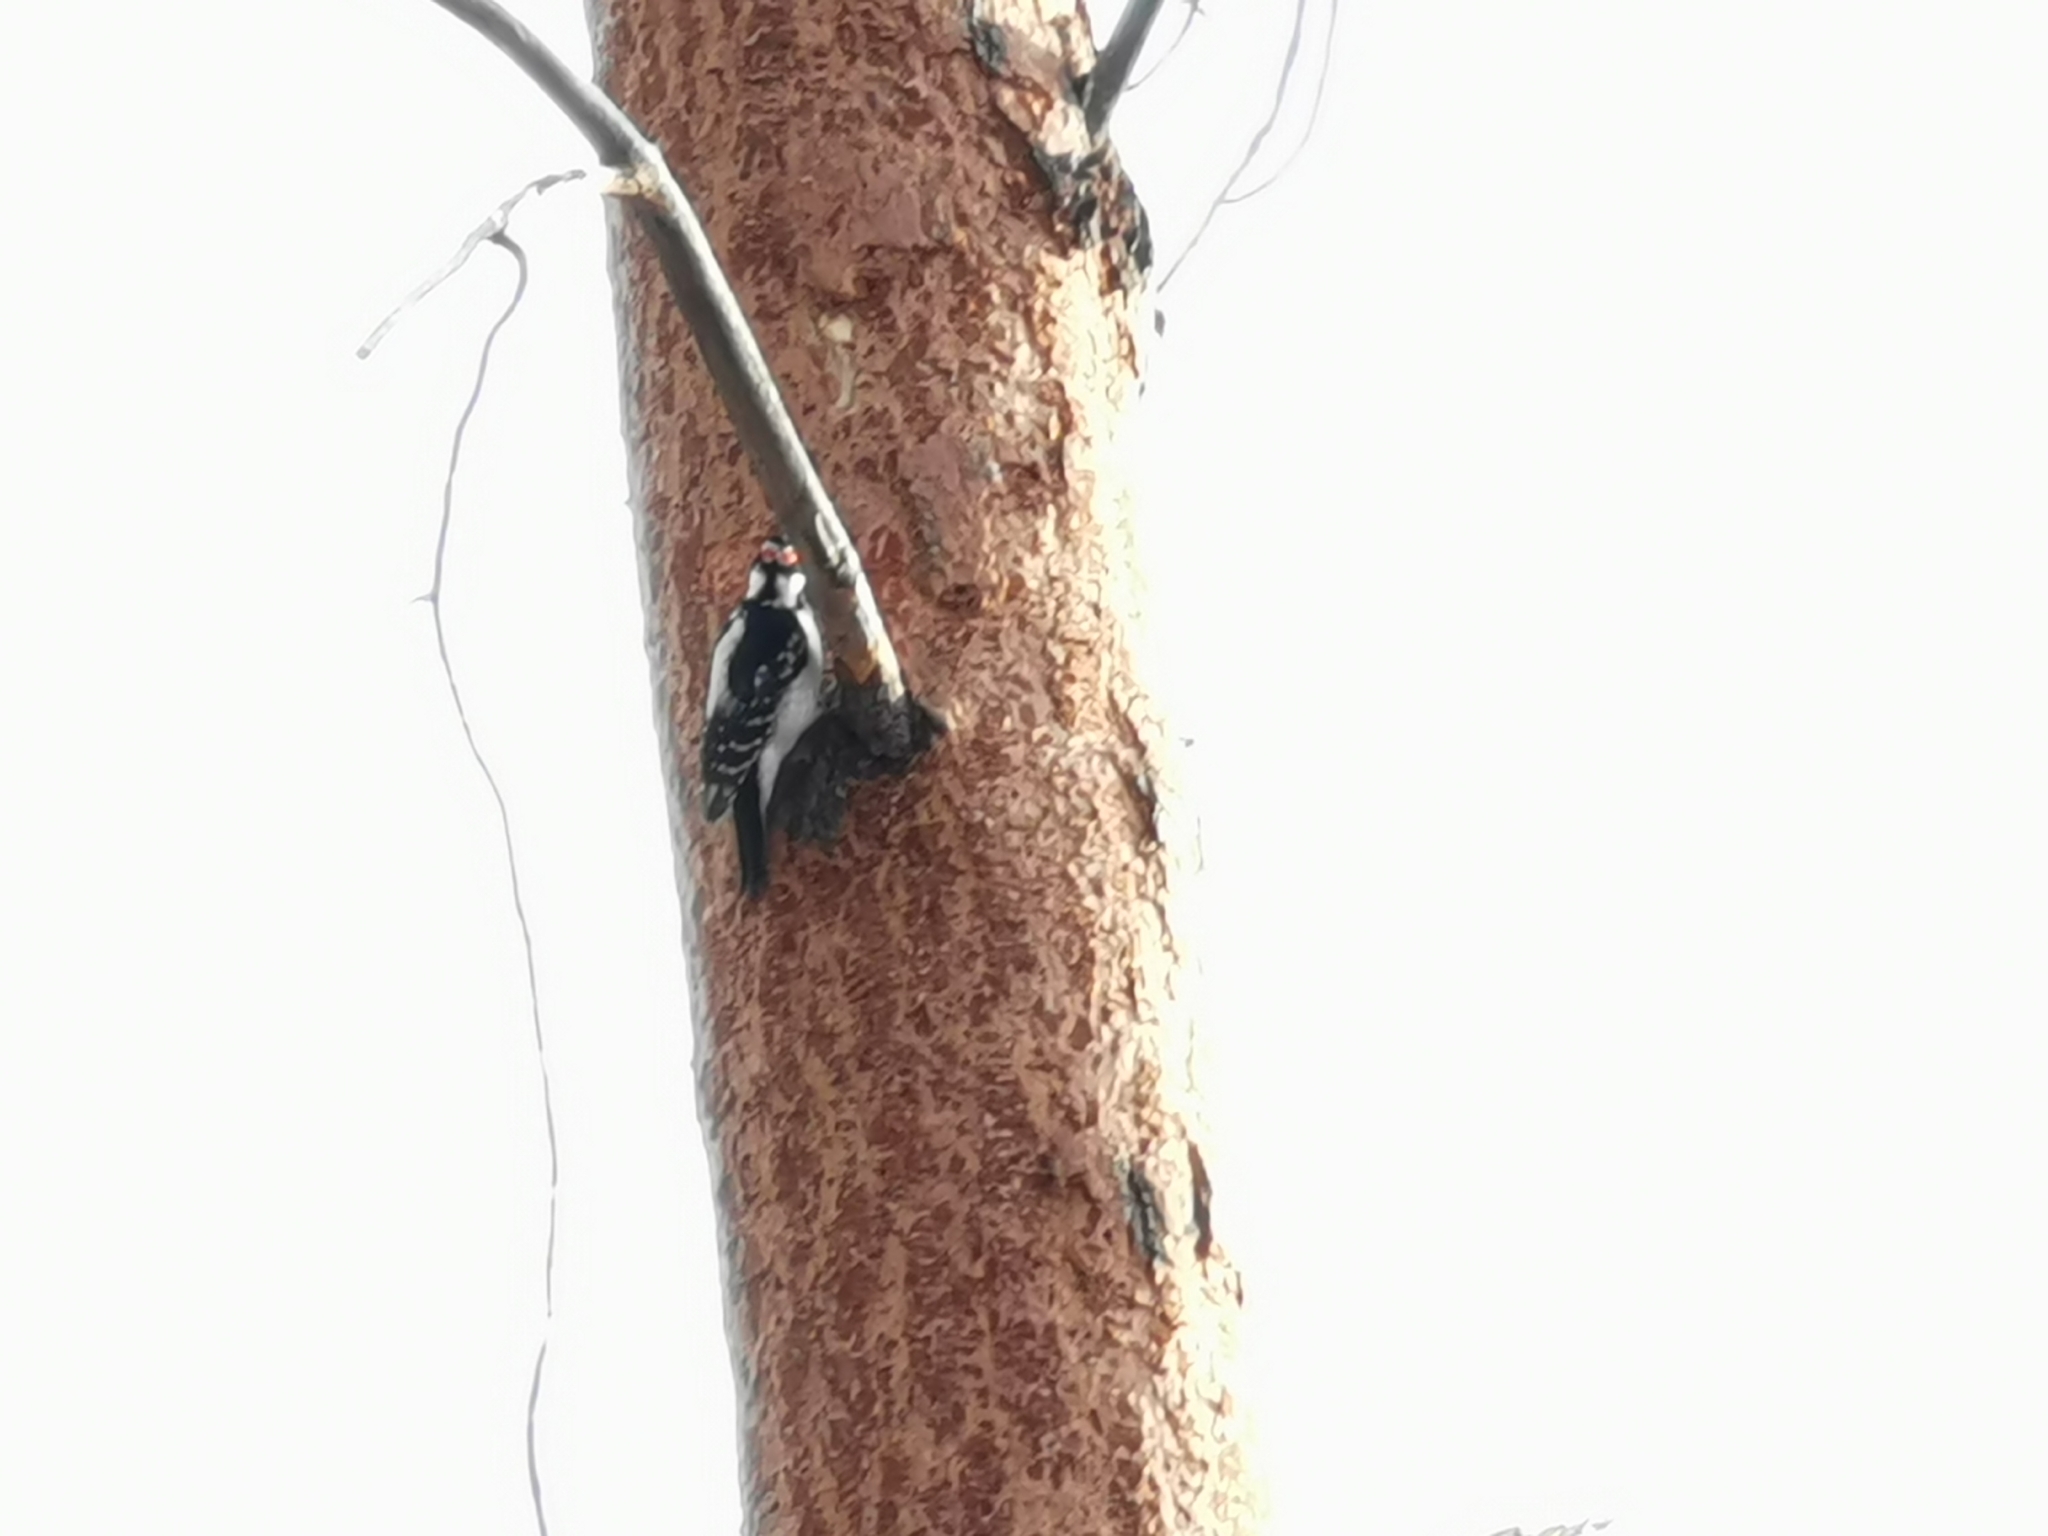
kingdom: Animalia
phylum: Chordata
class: Aves
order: Piciformes
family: Picidae
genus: Leuconotopicus
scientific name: Leuconotopicus villosus
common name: Hairy woodpecker
